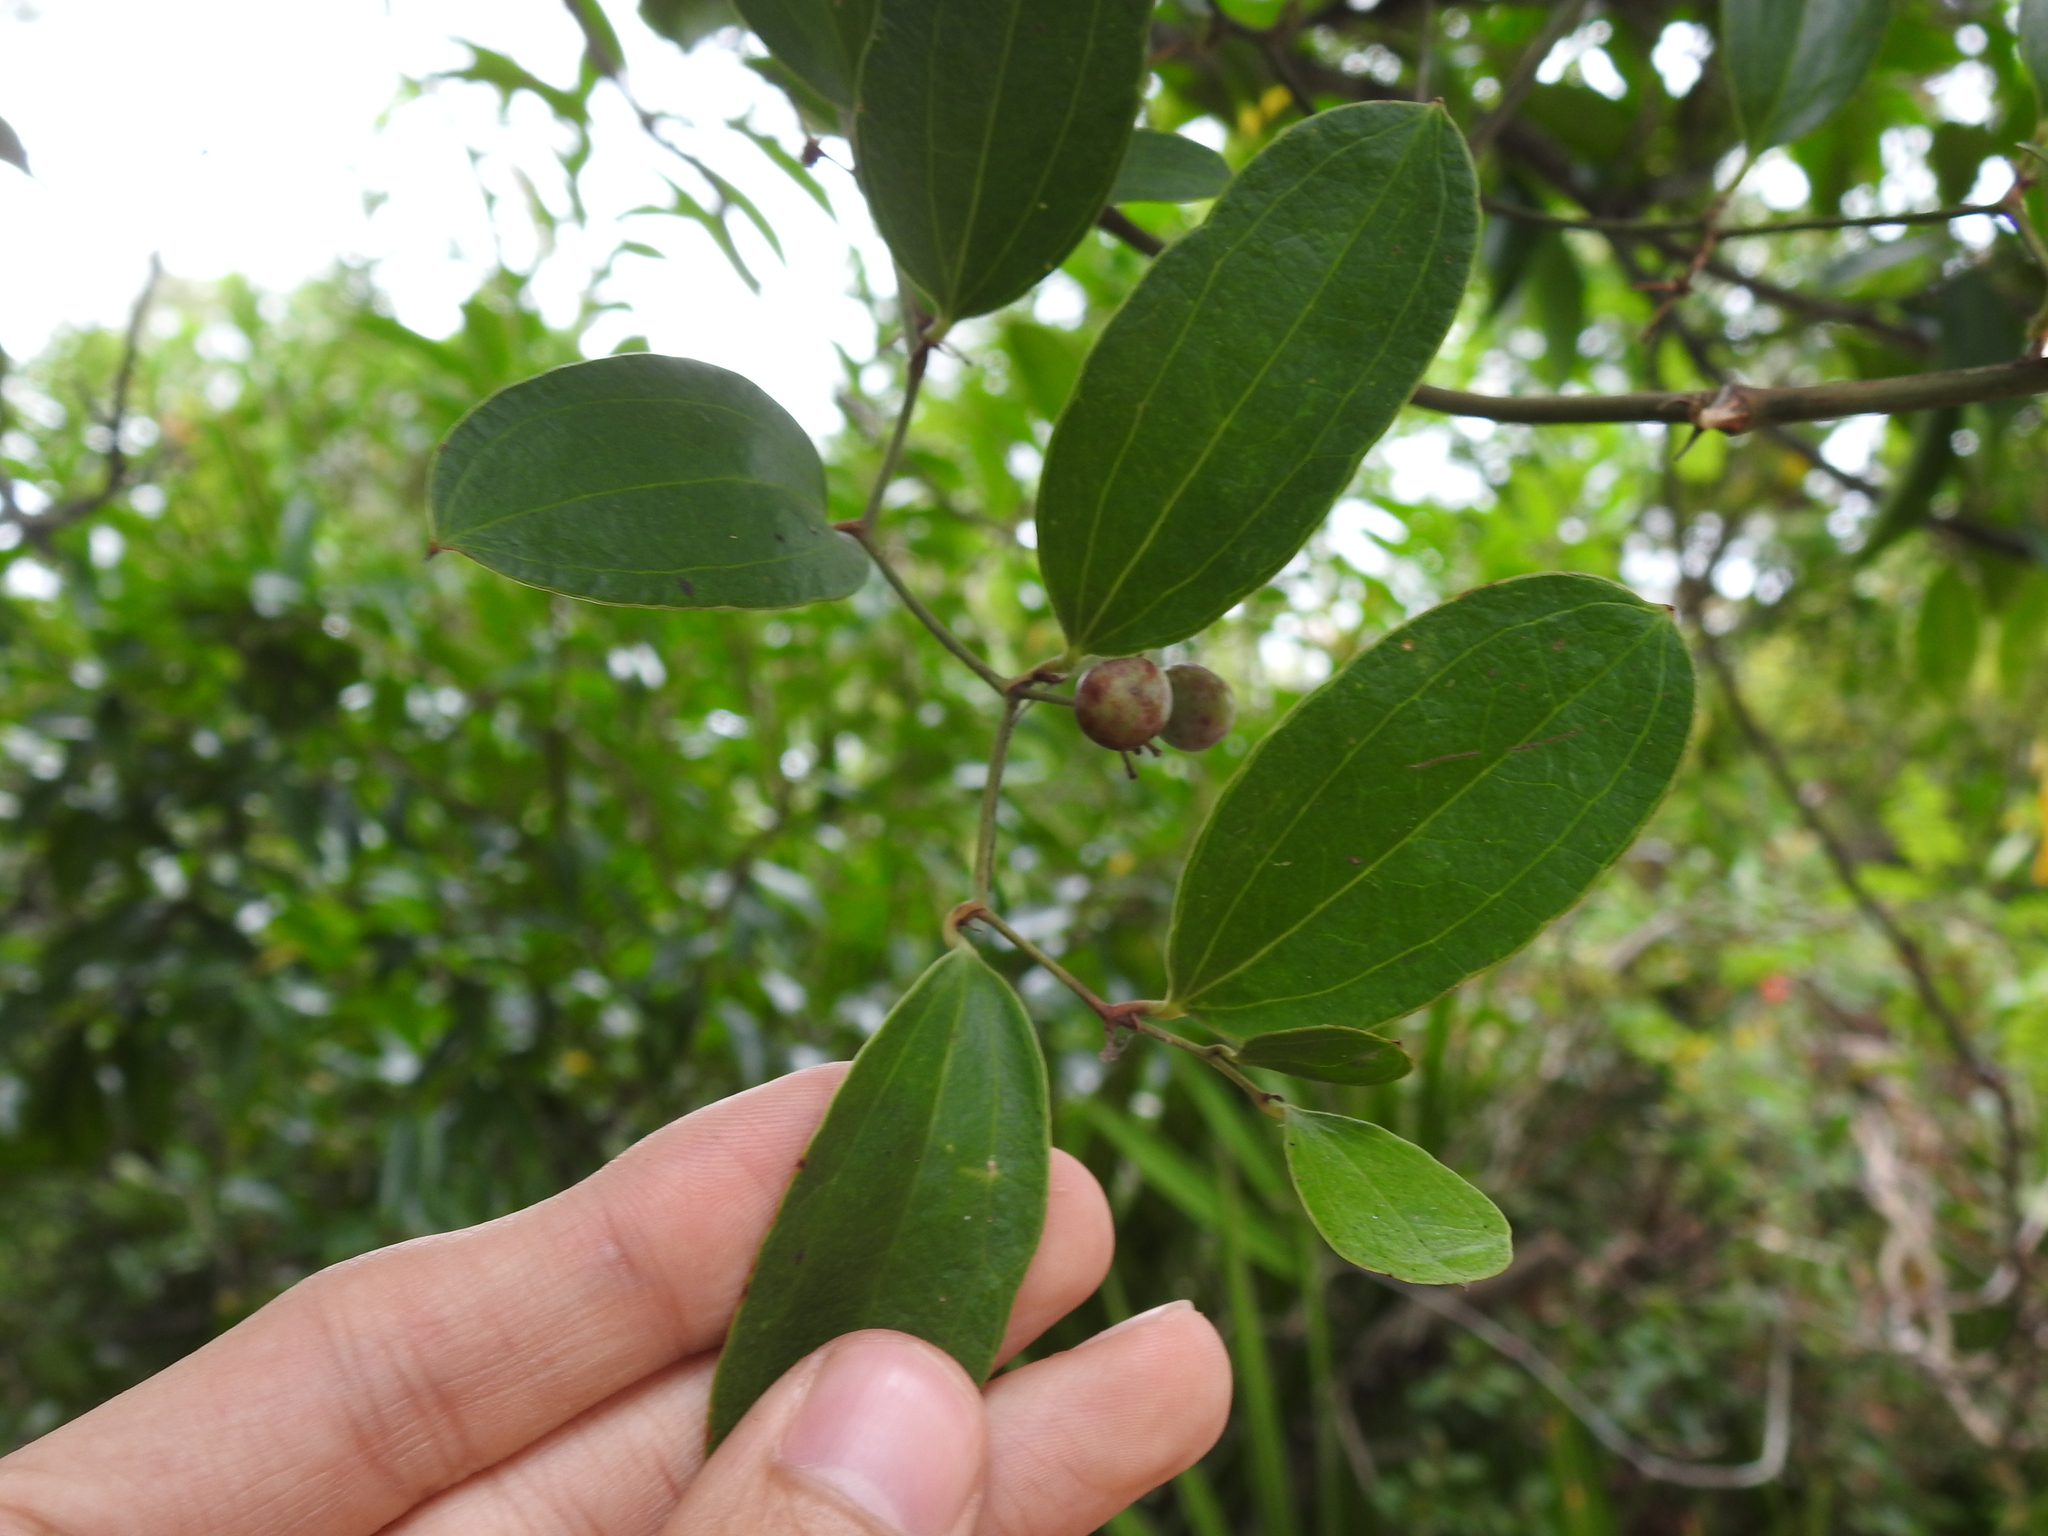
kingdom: Plantae
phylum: Tracheophyta
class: Liliopsida
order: Liliales
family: Smilacaceae
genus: Smilax
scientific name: Smilax auriculata
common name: Wild bamboo
